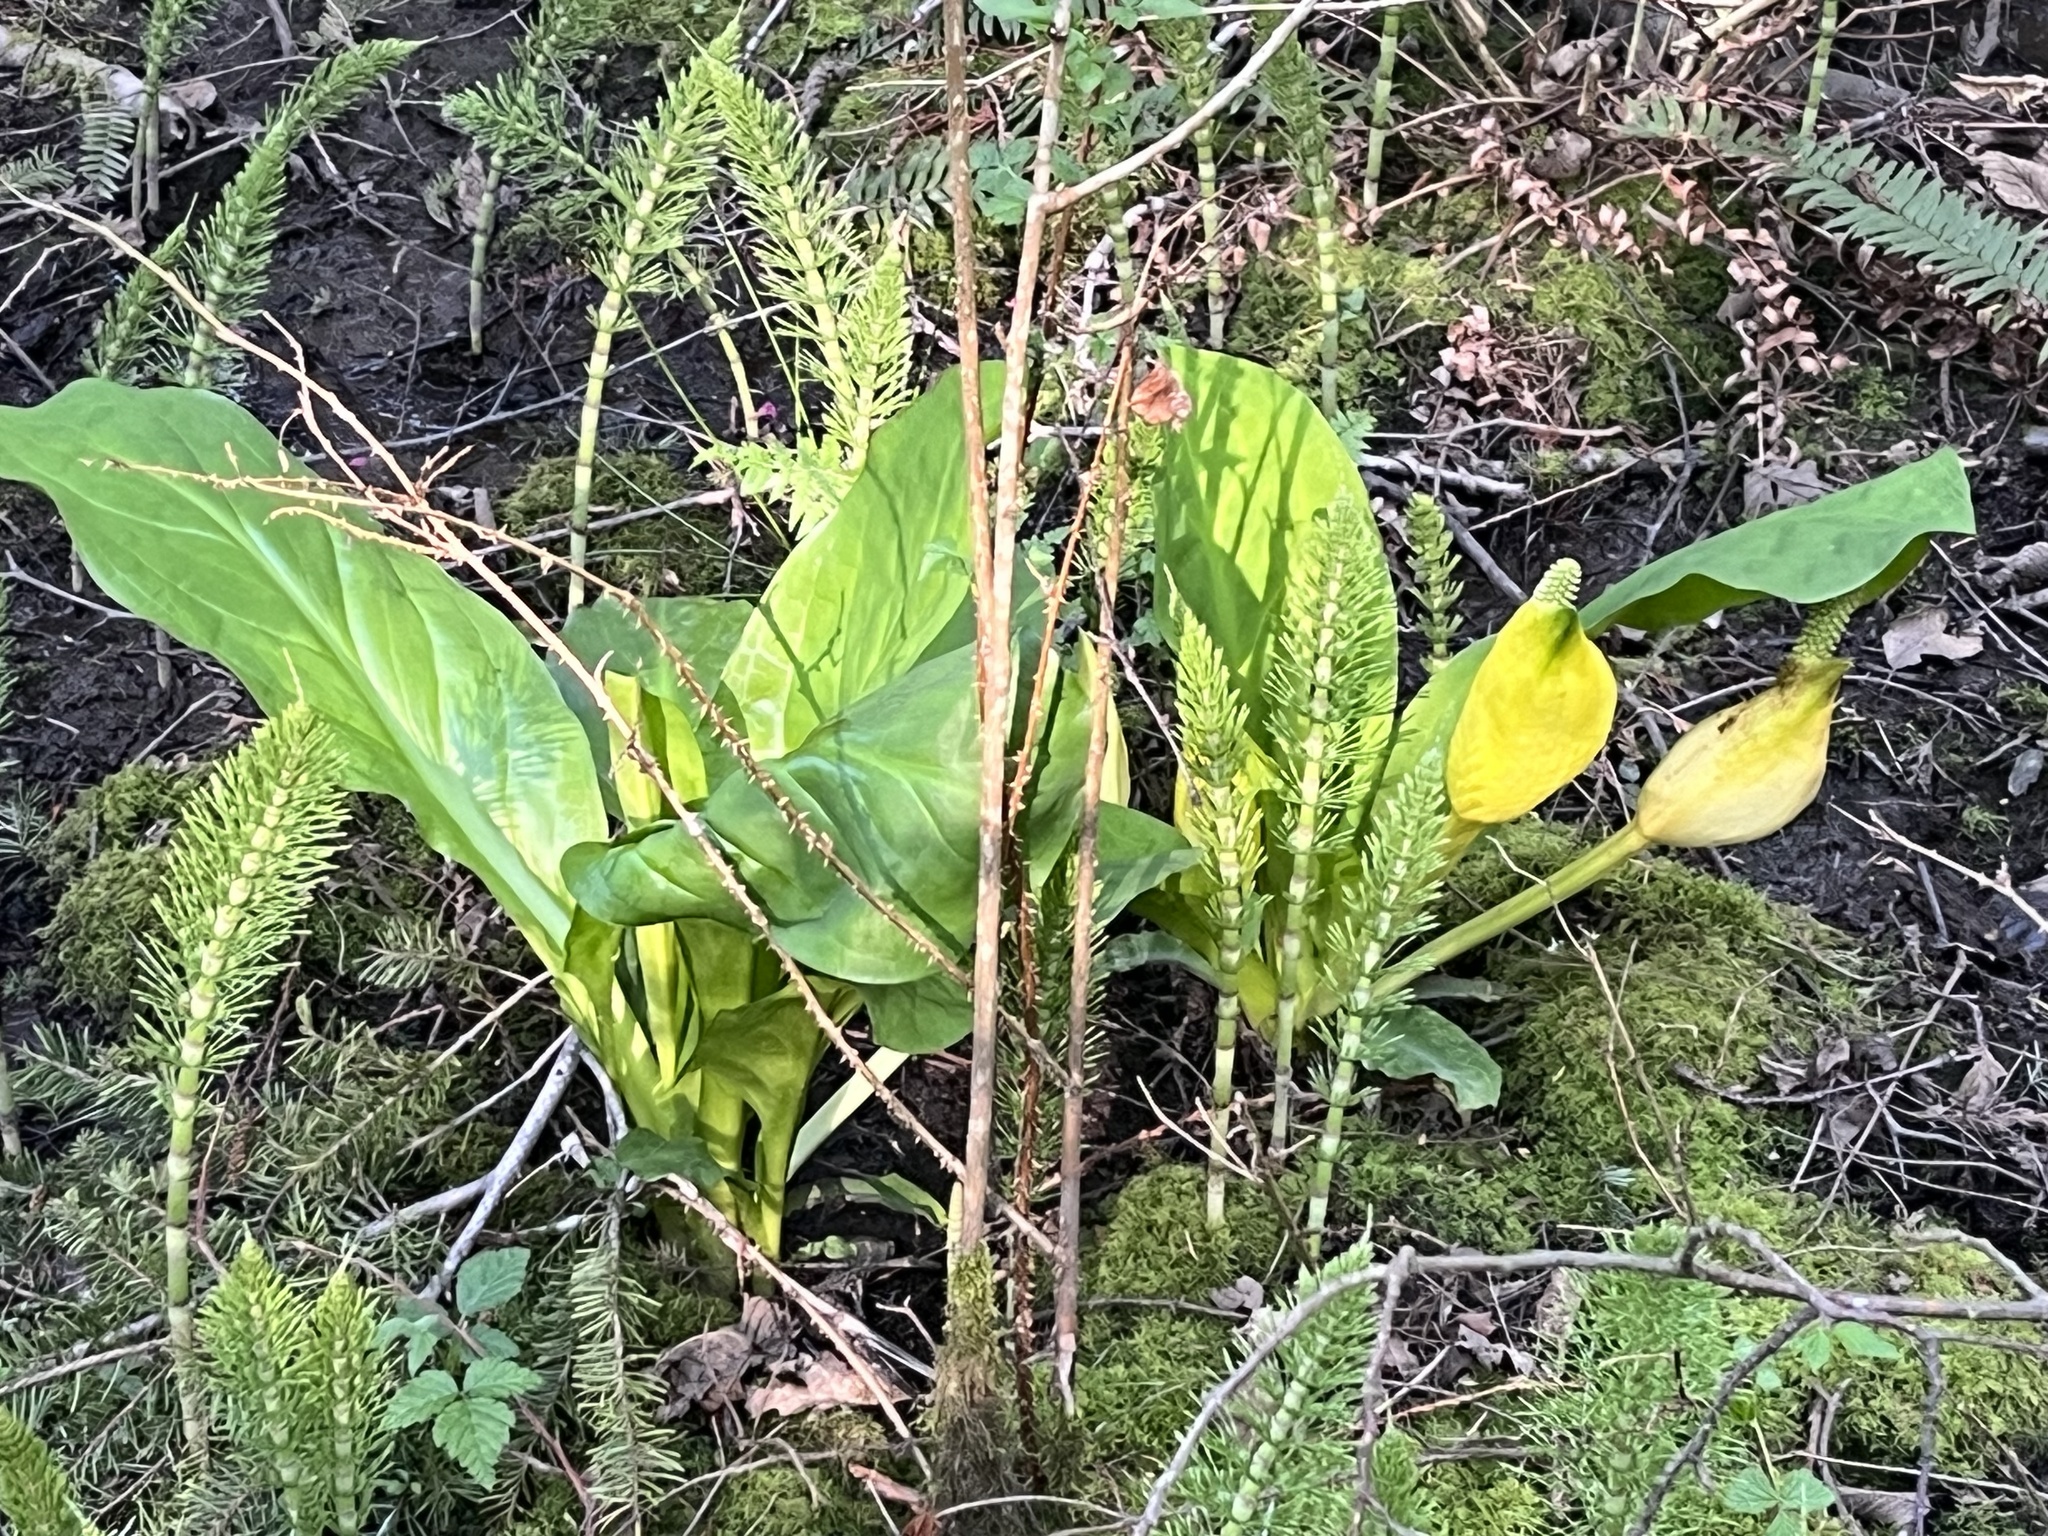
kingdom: Plantae
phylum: Tracheophyta
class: Liliopsida
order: Alismatales
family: Araceae
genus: Lysichiton
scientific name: Lysichiton americanus
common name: American skunk cabbage
